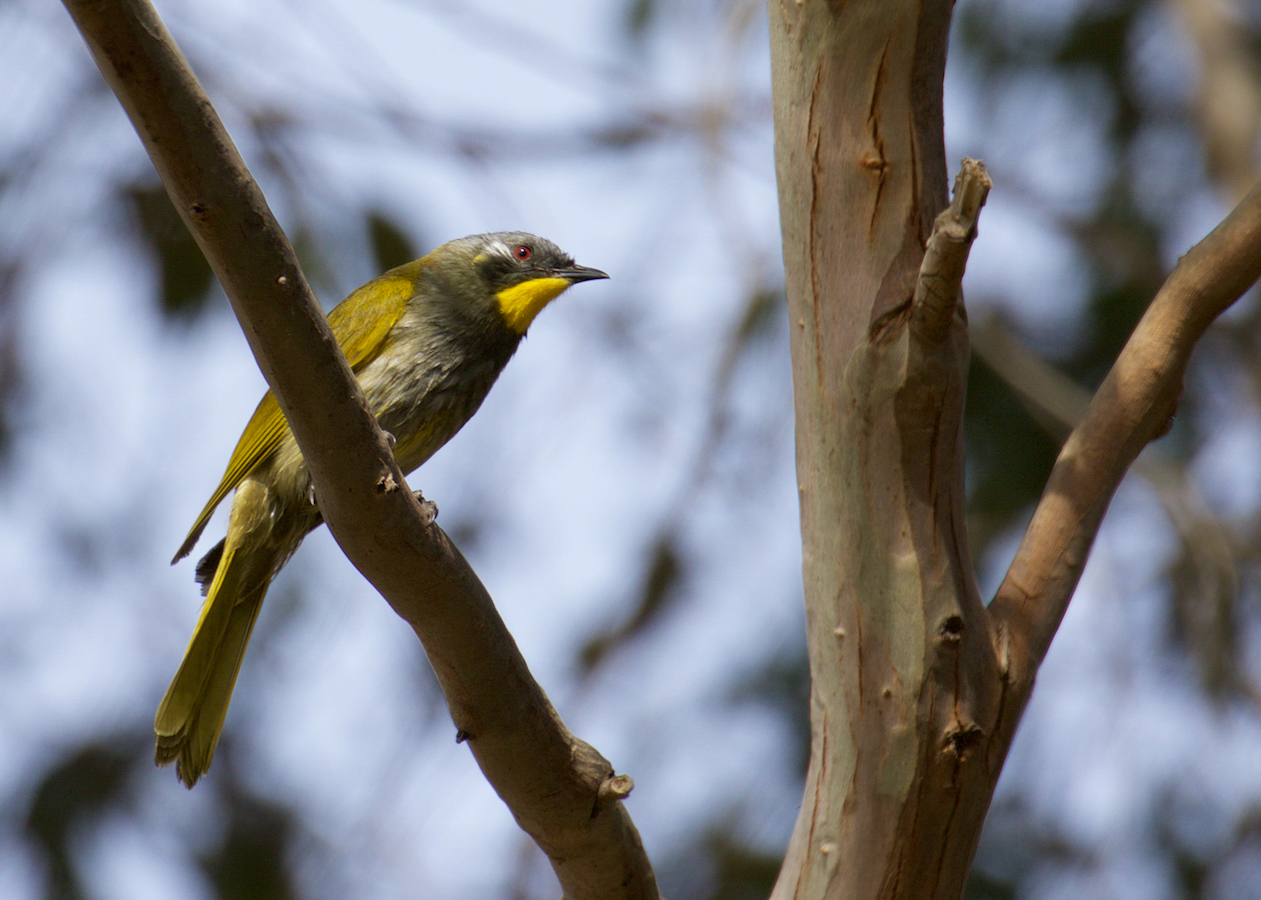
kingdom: Animalia
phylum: Chordata
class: Aves
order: Passeriformes
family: Meliphagidae
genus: Nesoptilotis
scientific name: Nesoptilotis flavicollis
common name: Yellow-throated honeyeater
